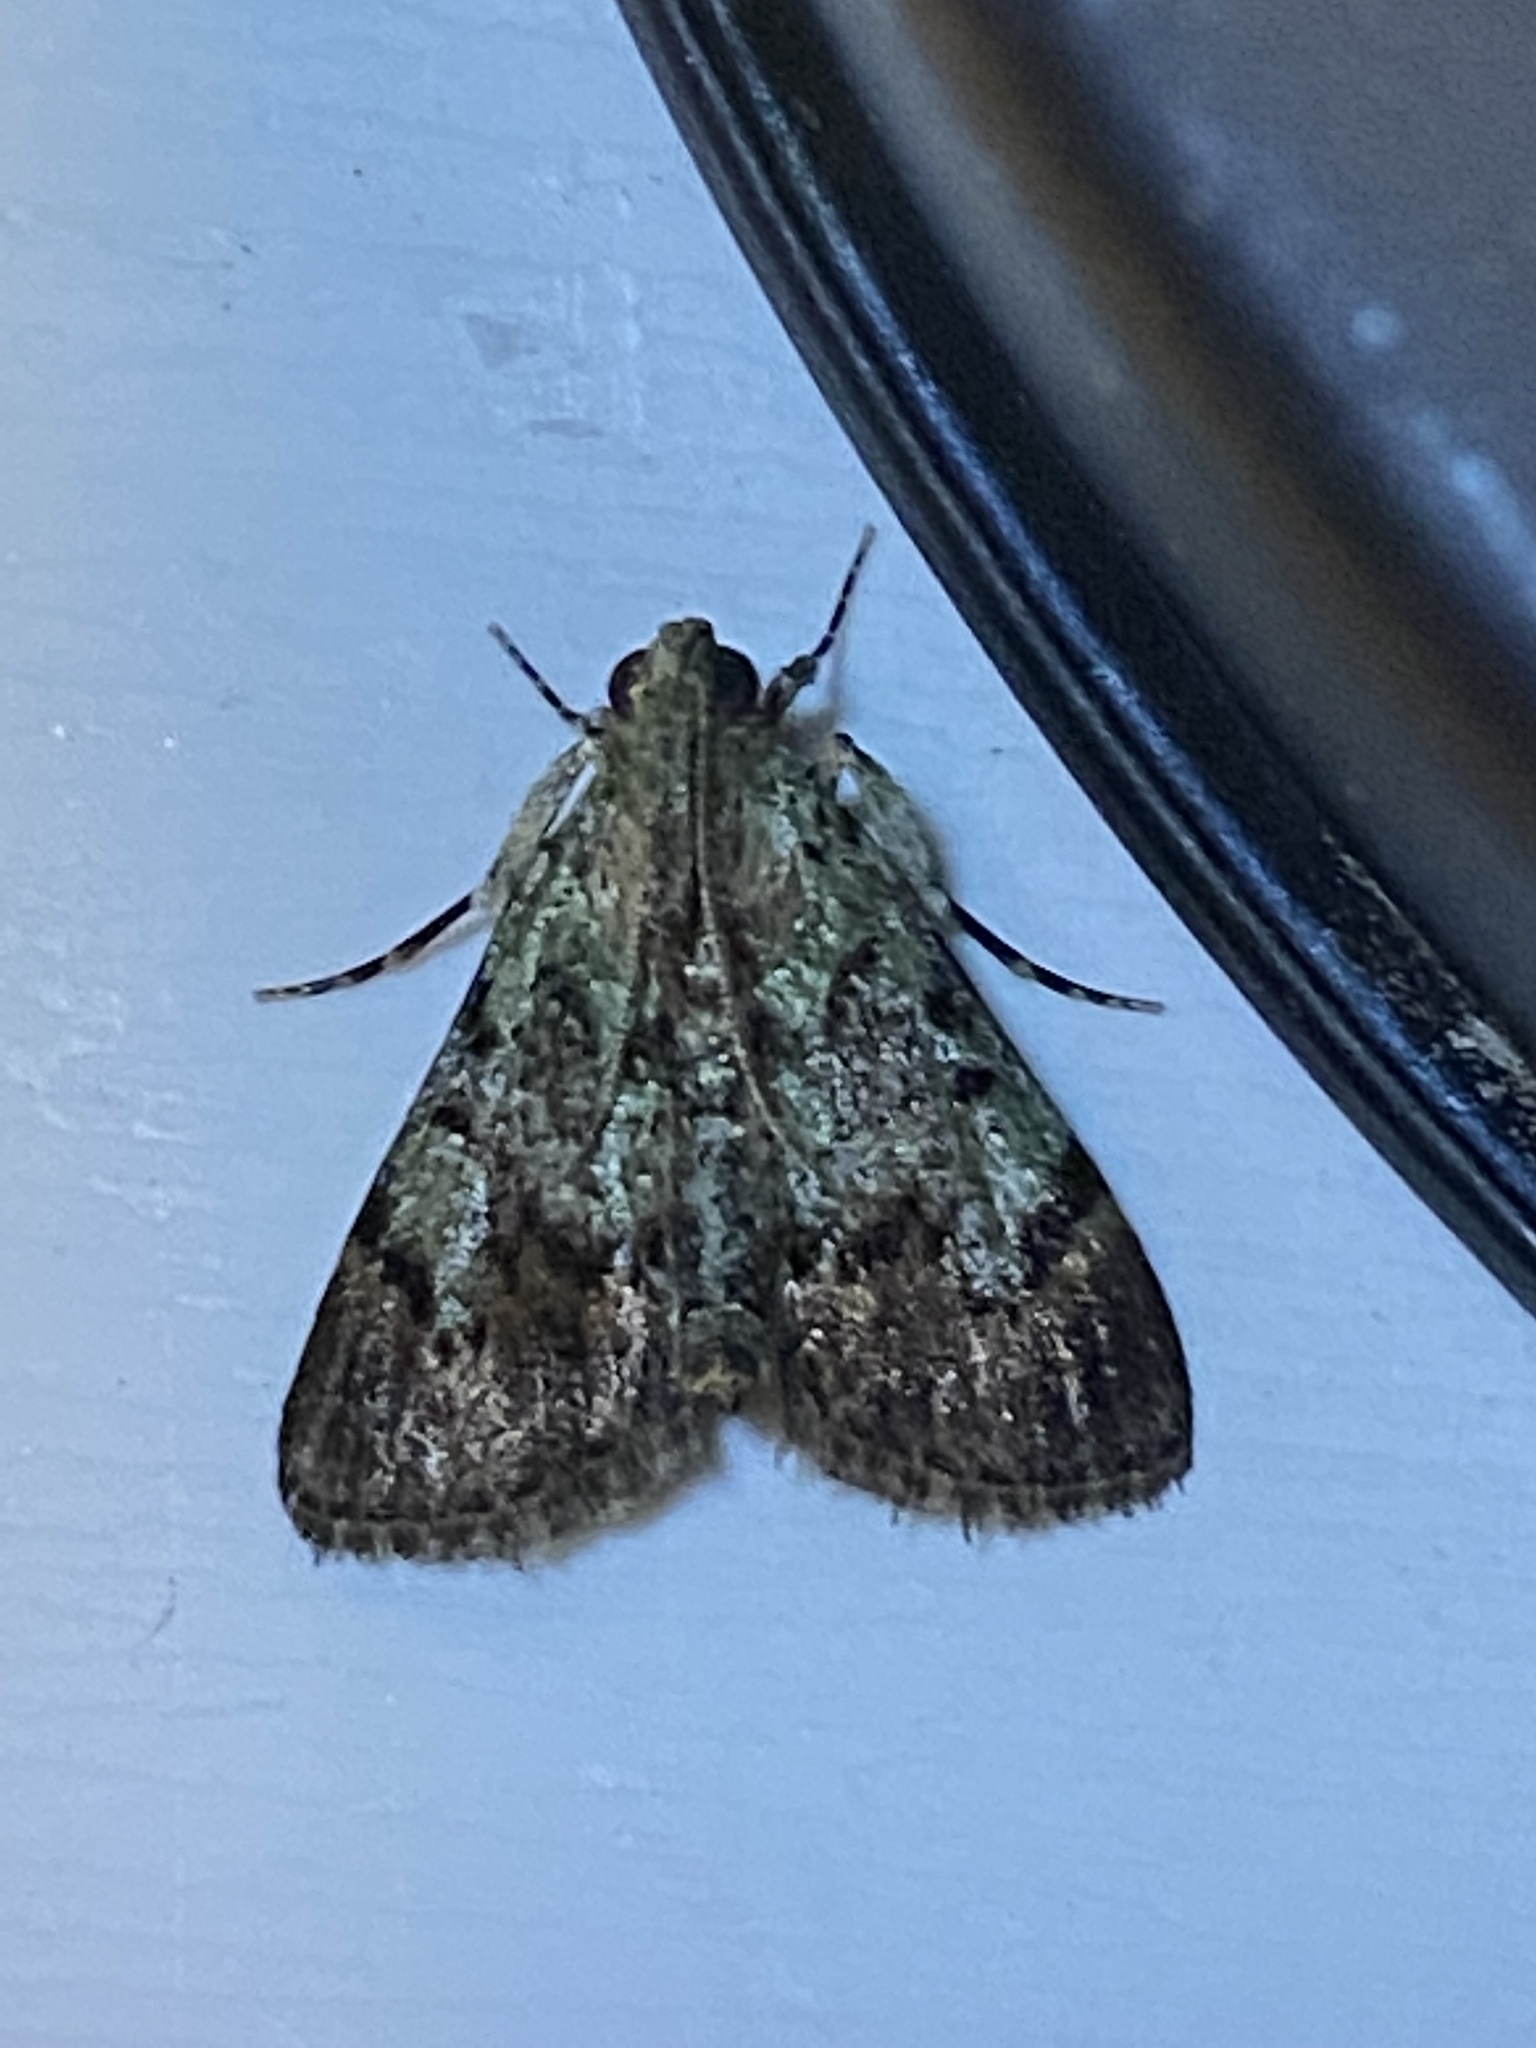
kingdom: Animalia
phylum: Arthropoda
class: Insecta
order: Lepidoptera
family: Pyralidae
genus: Epipaschia
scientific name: Epipaschia superatalis
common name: Dimorphic macalla moth
